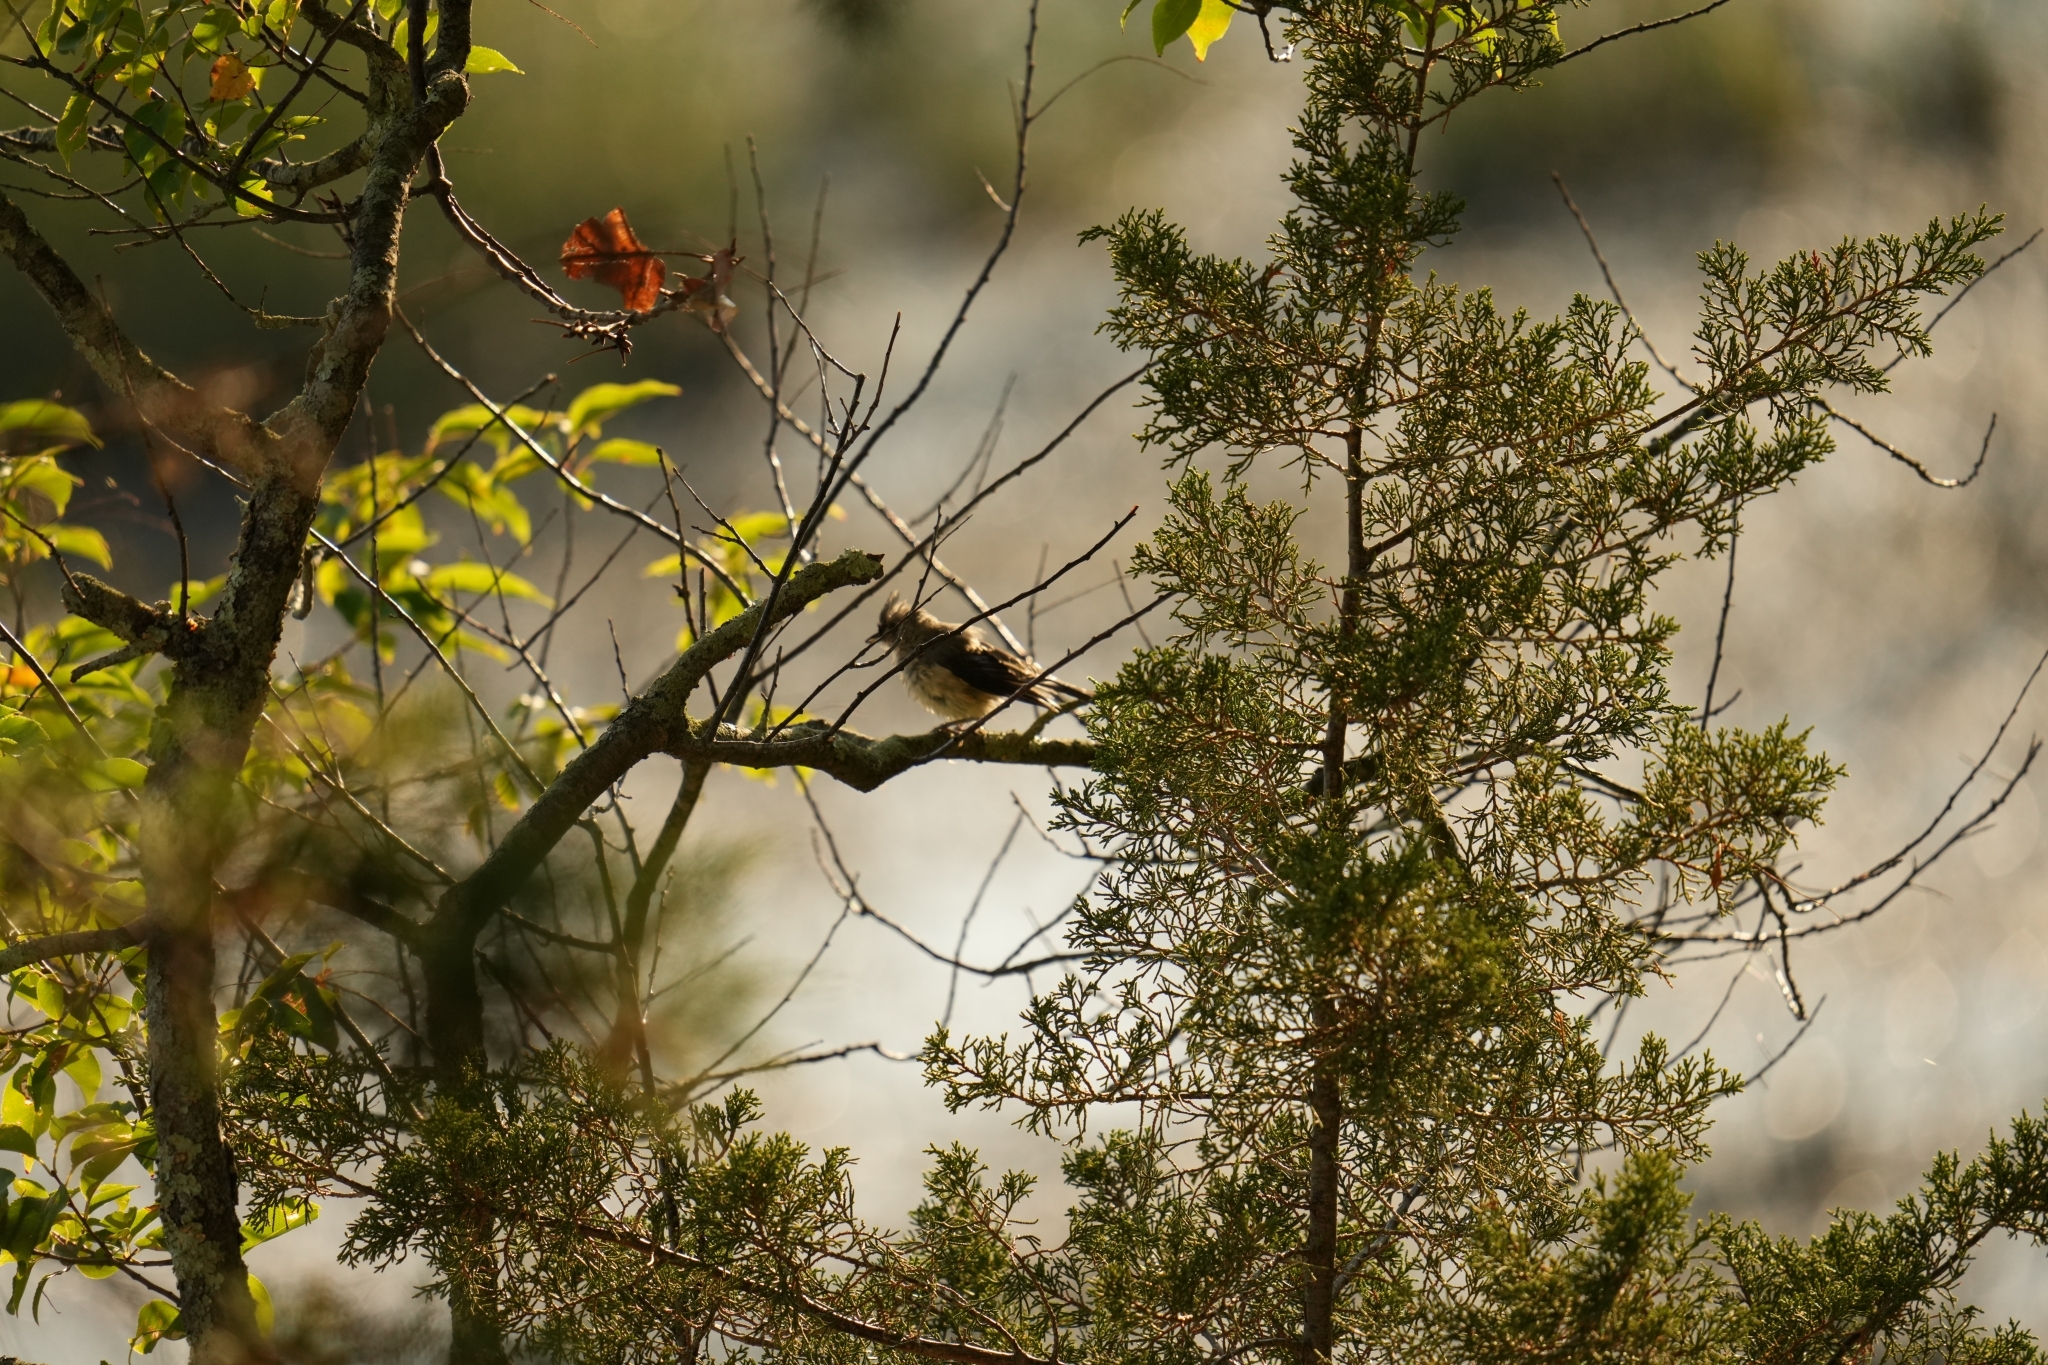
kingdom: Animalia
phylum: Chordata
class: Aves
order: Passeriformes
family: Paridae
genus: Baeolophus
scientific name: Baeolophus bicolor
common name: Tufted titmouse
